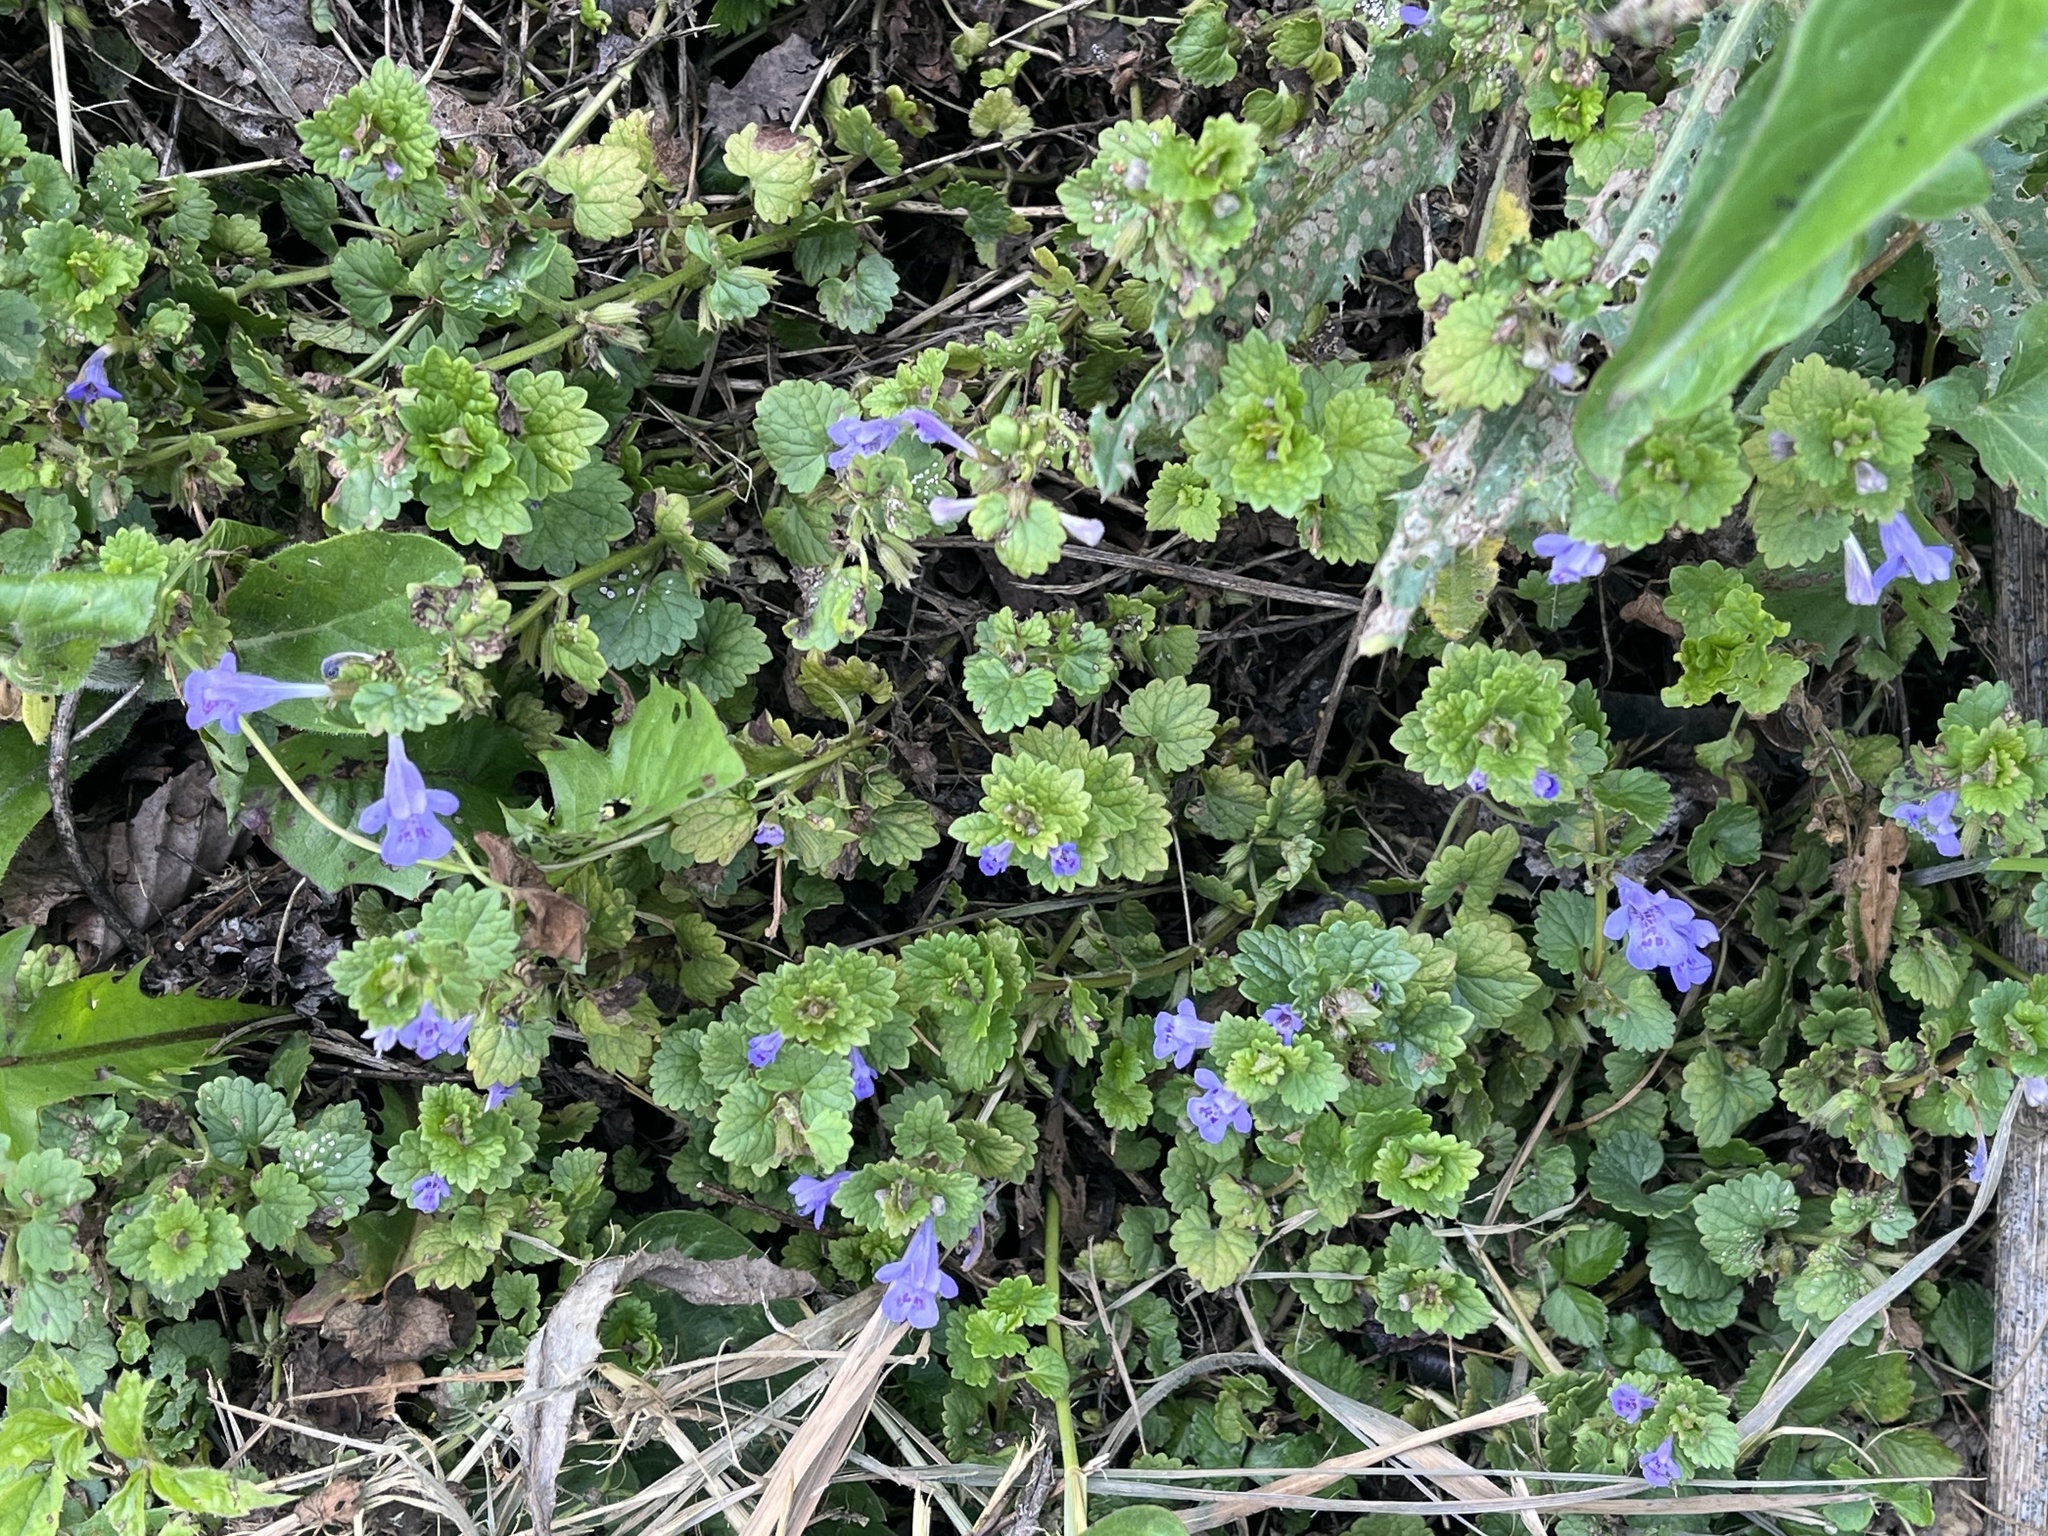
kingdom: Plantae
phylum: Tracheophyta
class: Magnoliopsida
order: Lamiales
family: Lamiaceae
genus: Glechoma
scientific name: Glechoma hederacea
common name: Ground ivy
